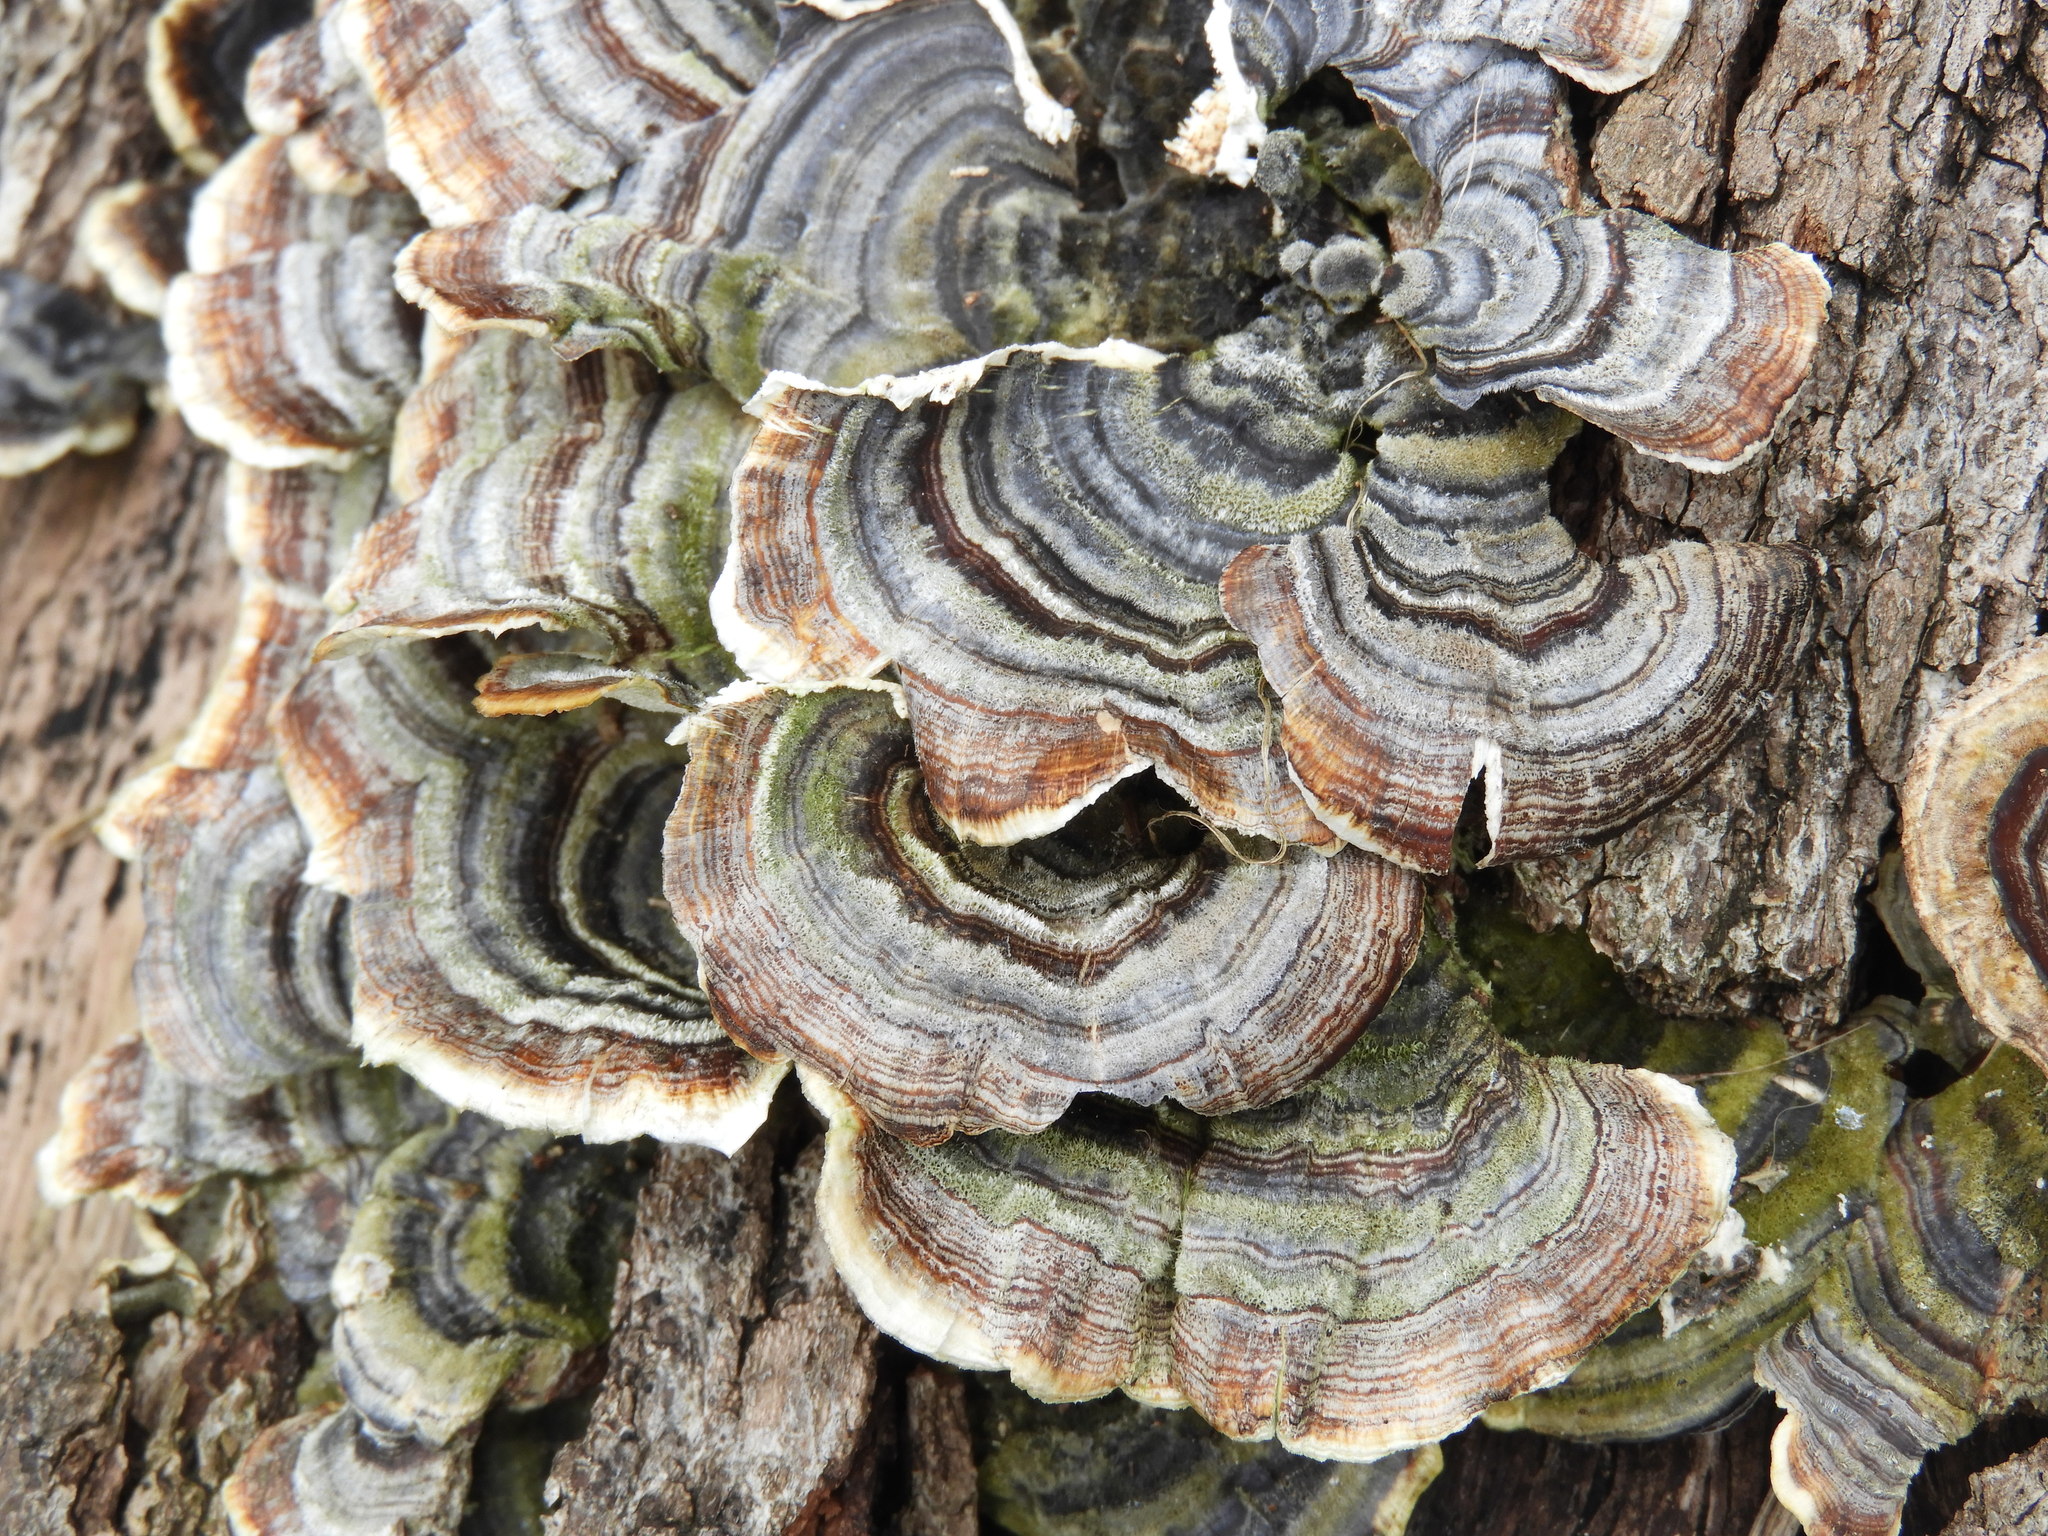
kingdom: Fungi
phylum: Basidiomycota
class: Agaricomycetes
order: Polyporales
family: Polyporaceae
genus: Trametes
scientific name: Trametes versicolor
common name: Turkeytail
